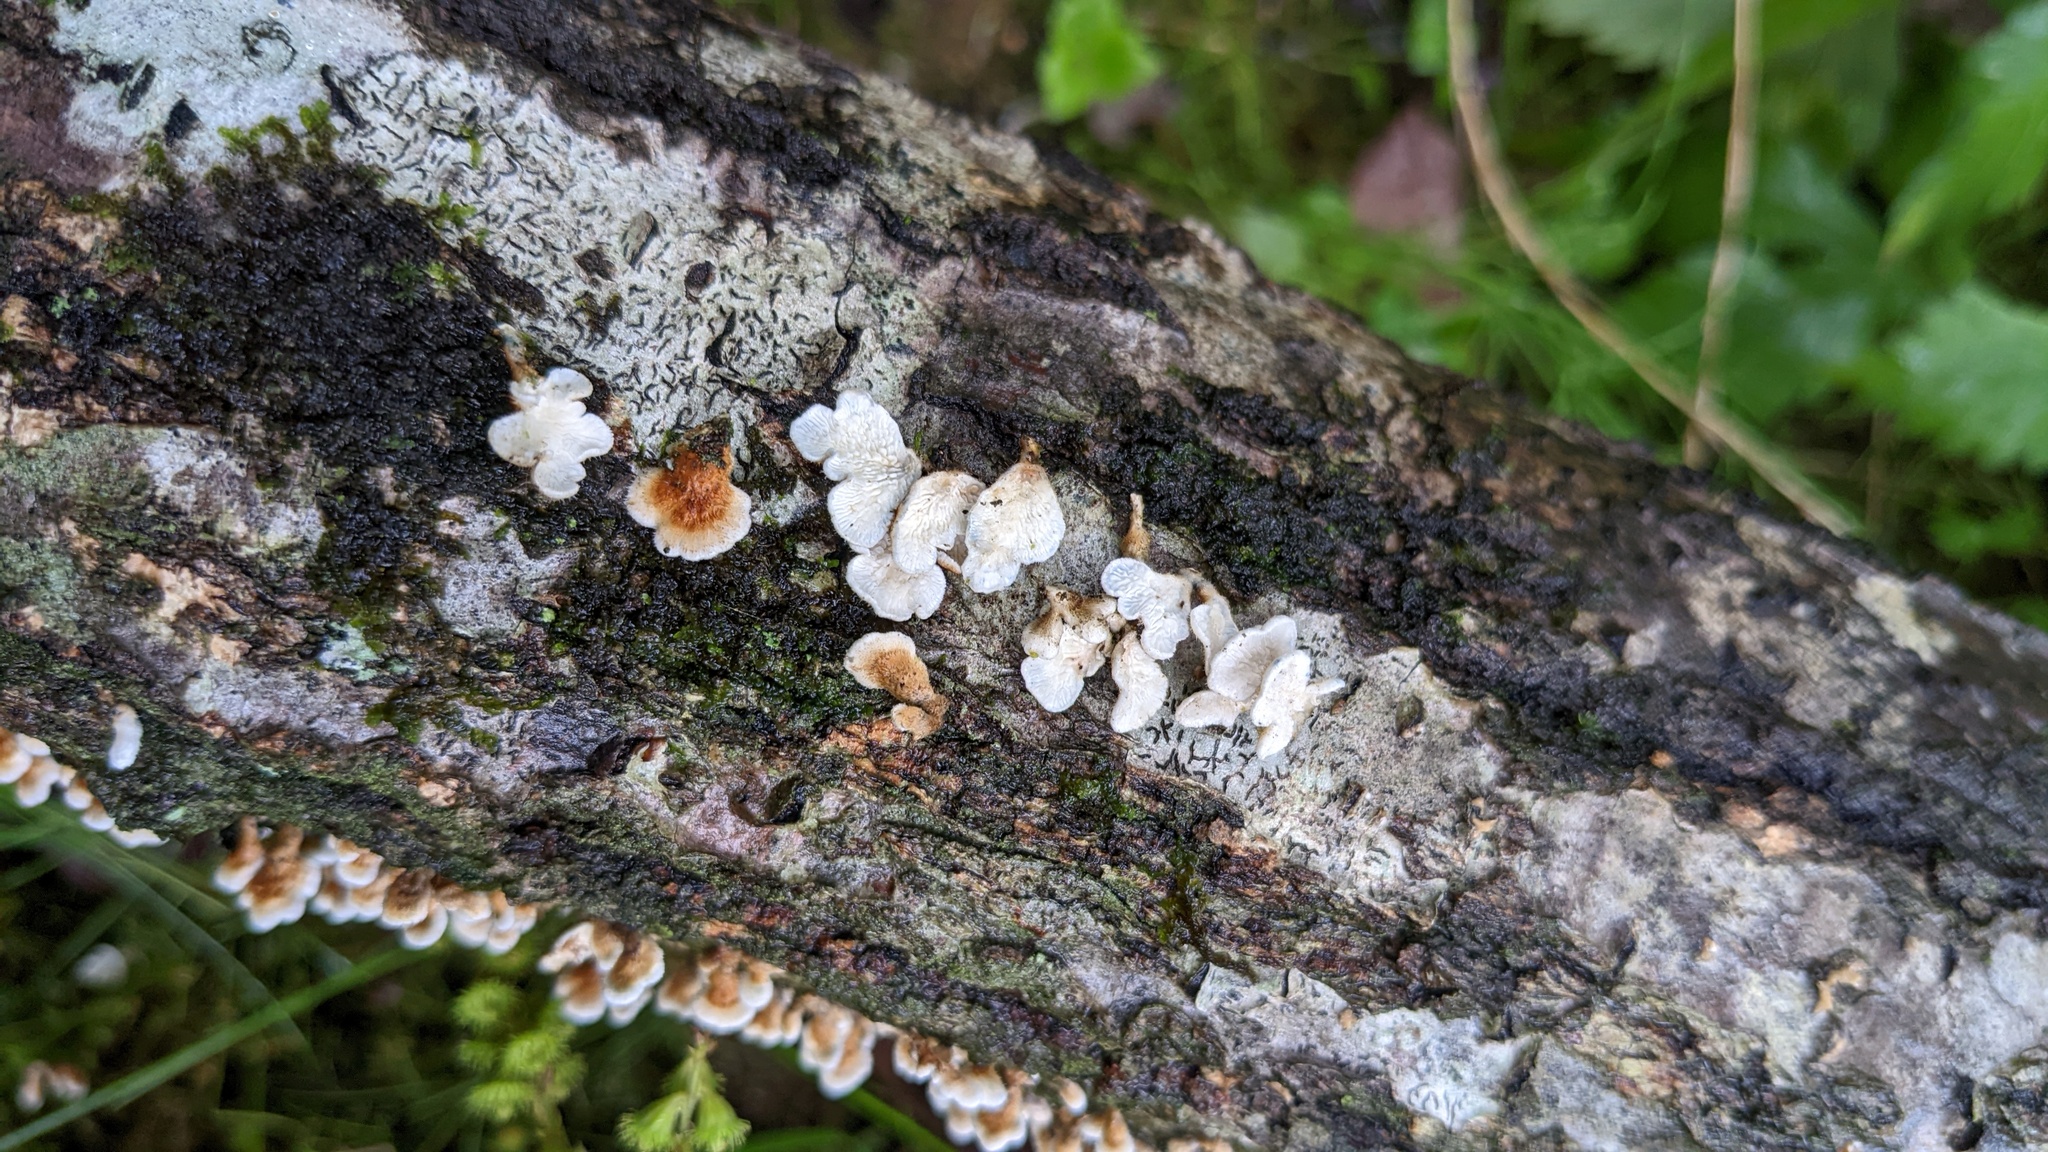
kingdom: Fungi
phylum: Basidiomycota
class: Agaricomycetes
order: Amylocorticiales
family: Amylocorticiaceae
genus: Plicaturopsis
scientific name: Plicaturopsis crispa
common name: Crimped gill
